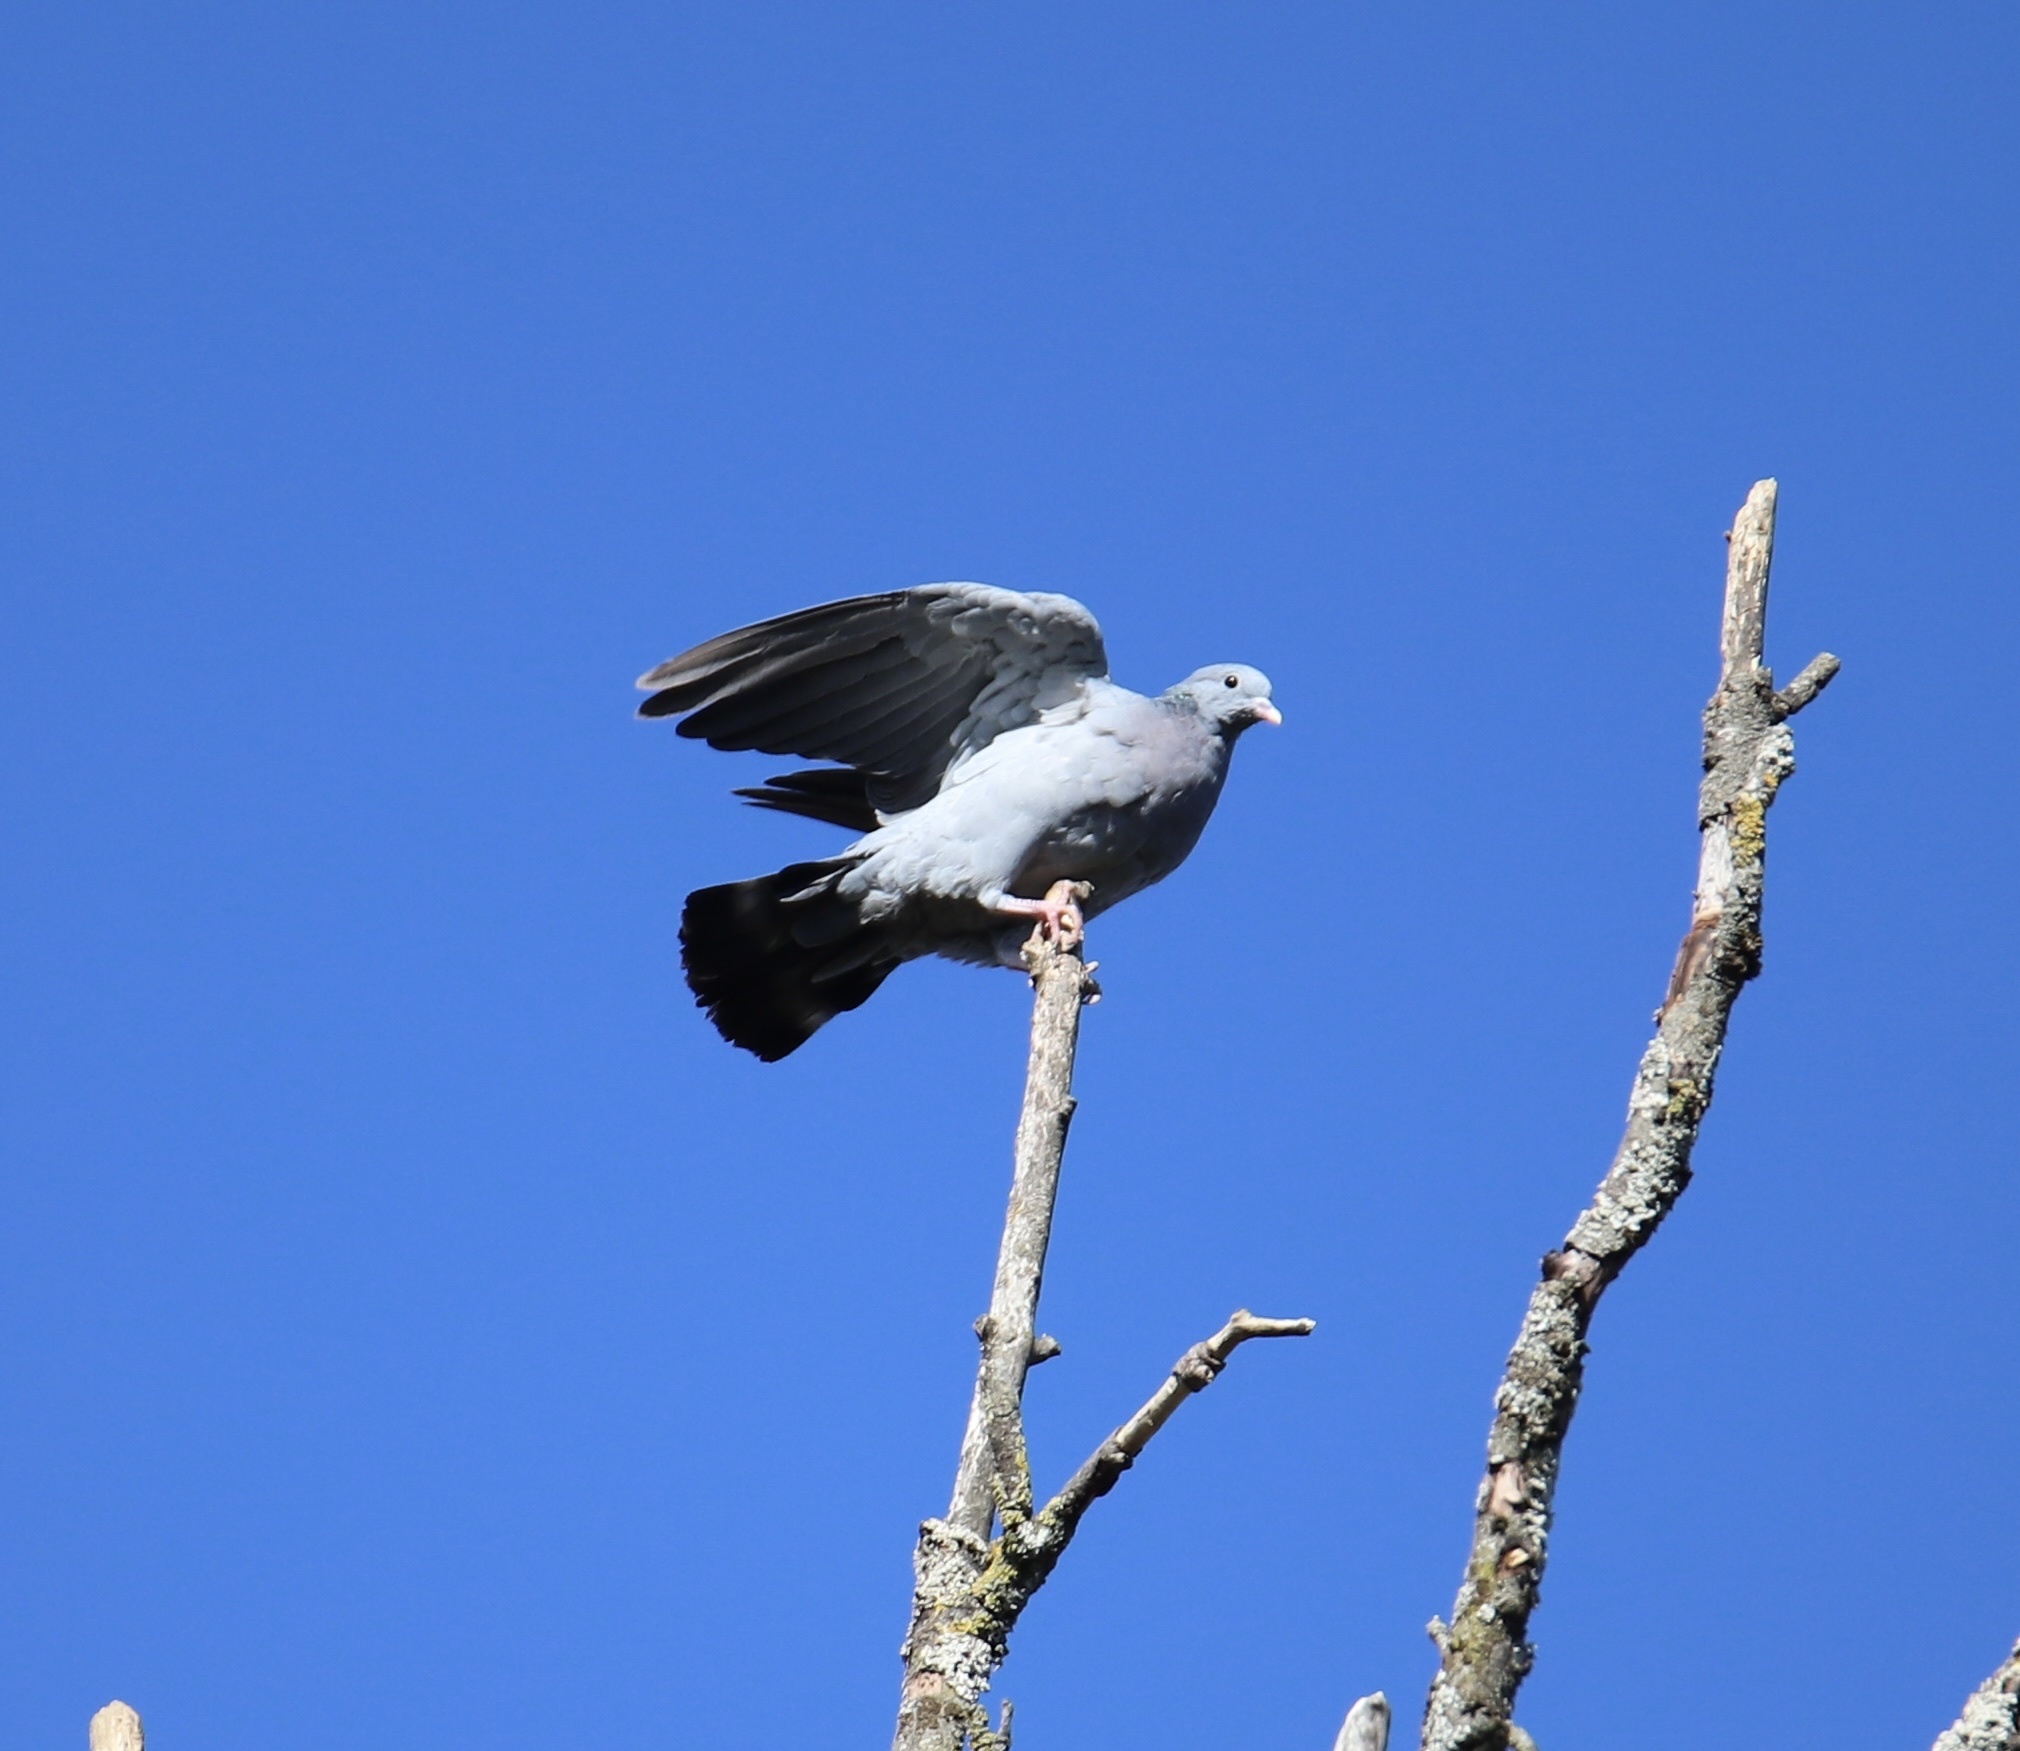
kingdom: Animalia
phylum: Chordata
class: Aves
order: Columbiformes
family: Columbidae
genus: Columba
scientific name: Columba oenas
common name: Stock dove
